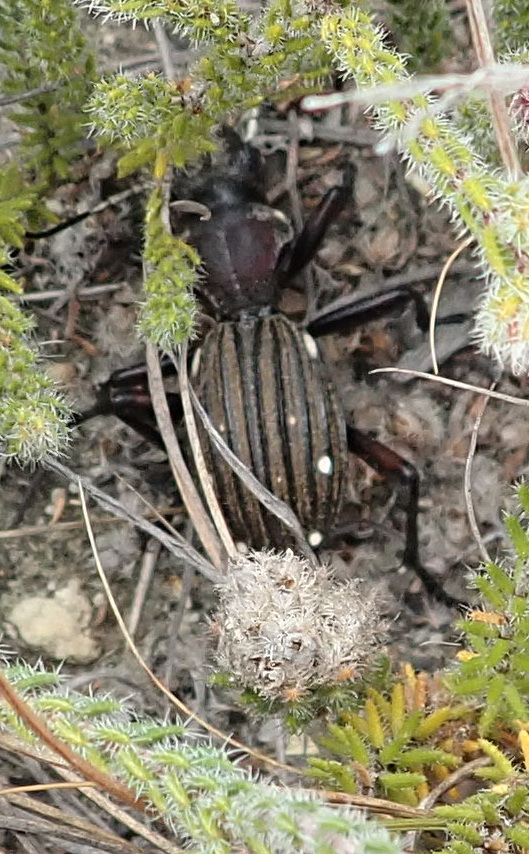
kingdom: Animalia
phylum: Arthropoda
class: Insecta
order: Coleoptera
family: Carabidae
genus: Anthia
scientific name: Anthia decemguttata
